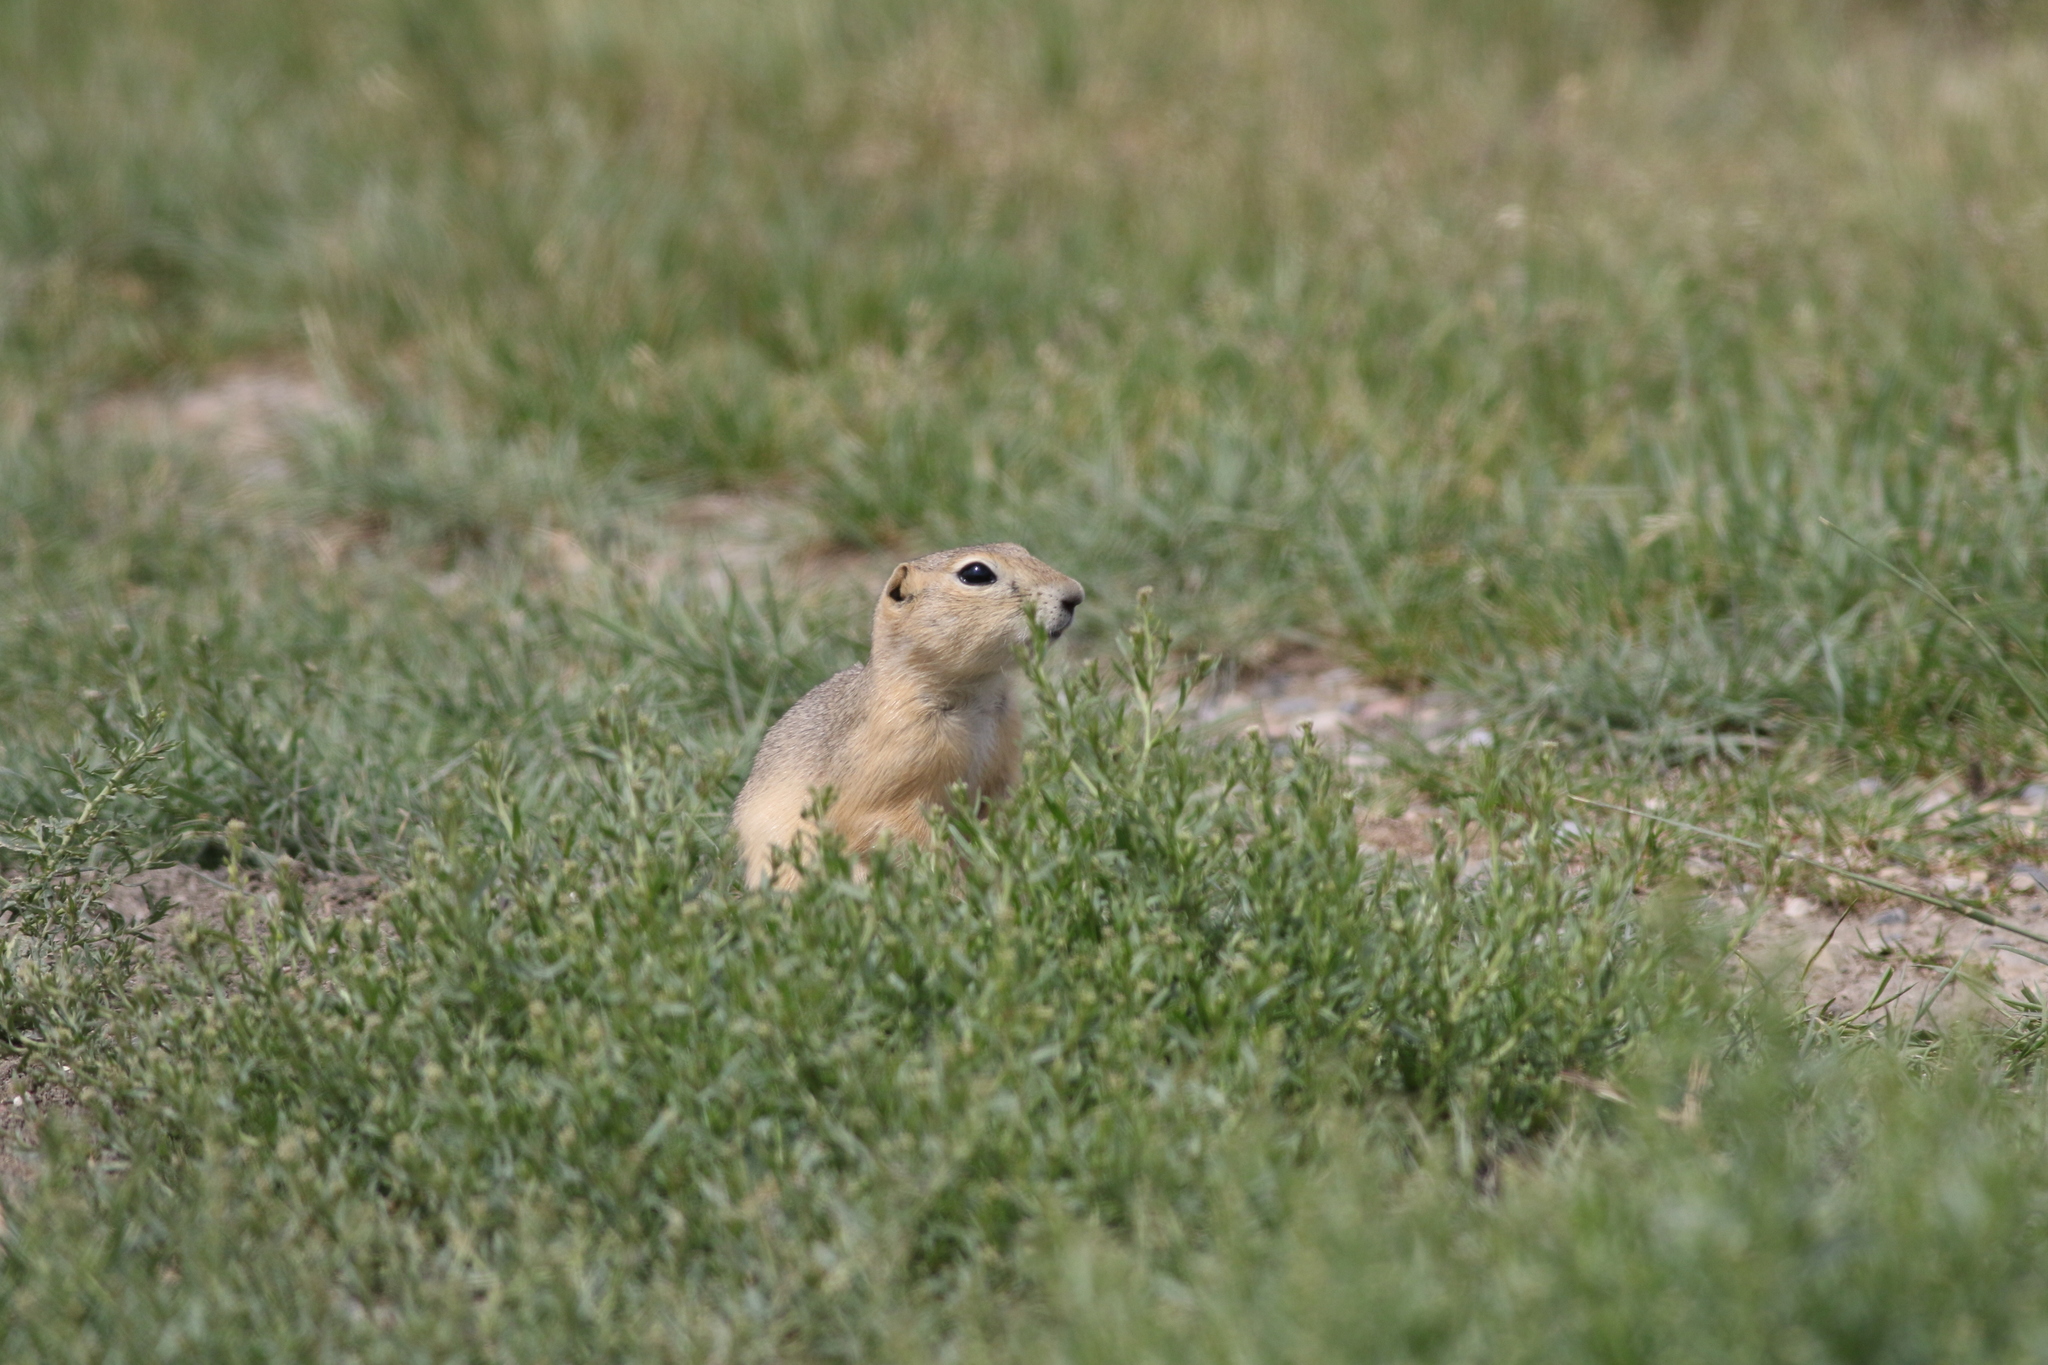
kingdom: Animalia
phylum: Chordata
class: Mammalia
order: Rodentia
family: Sciuridae
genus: Urocitellus
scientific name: Urocitellus richardsonii
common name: Richardson's ground squirrel
